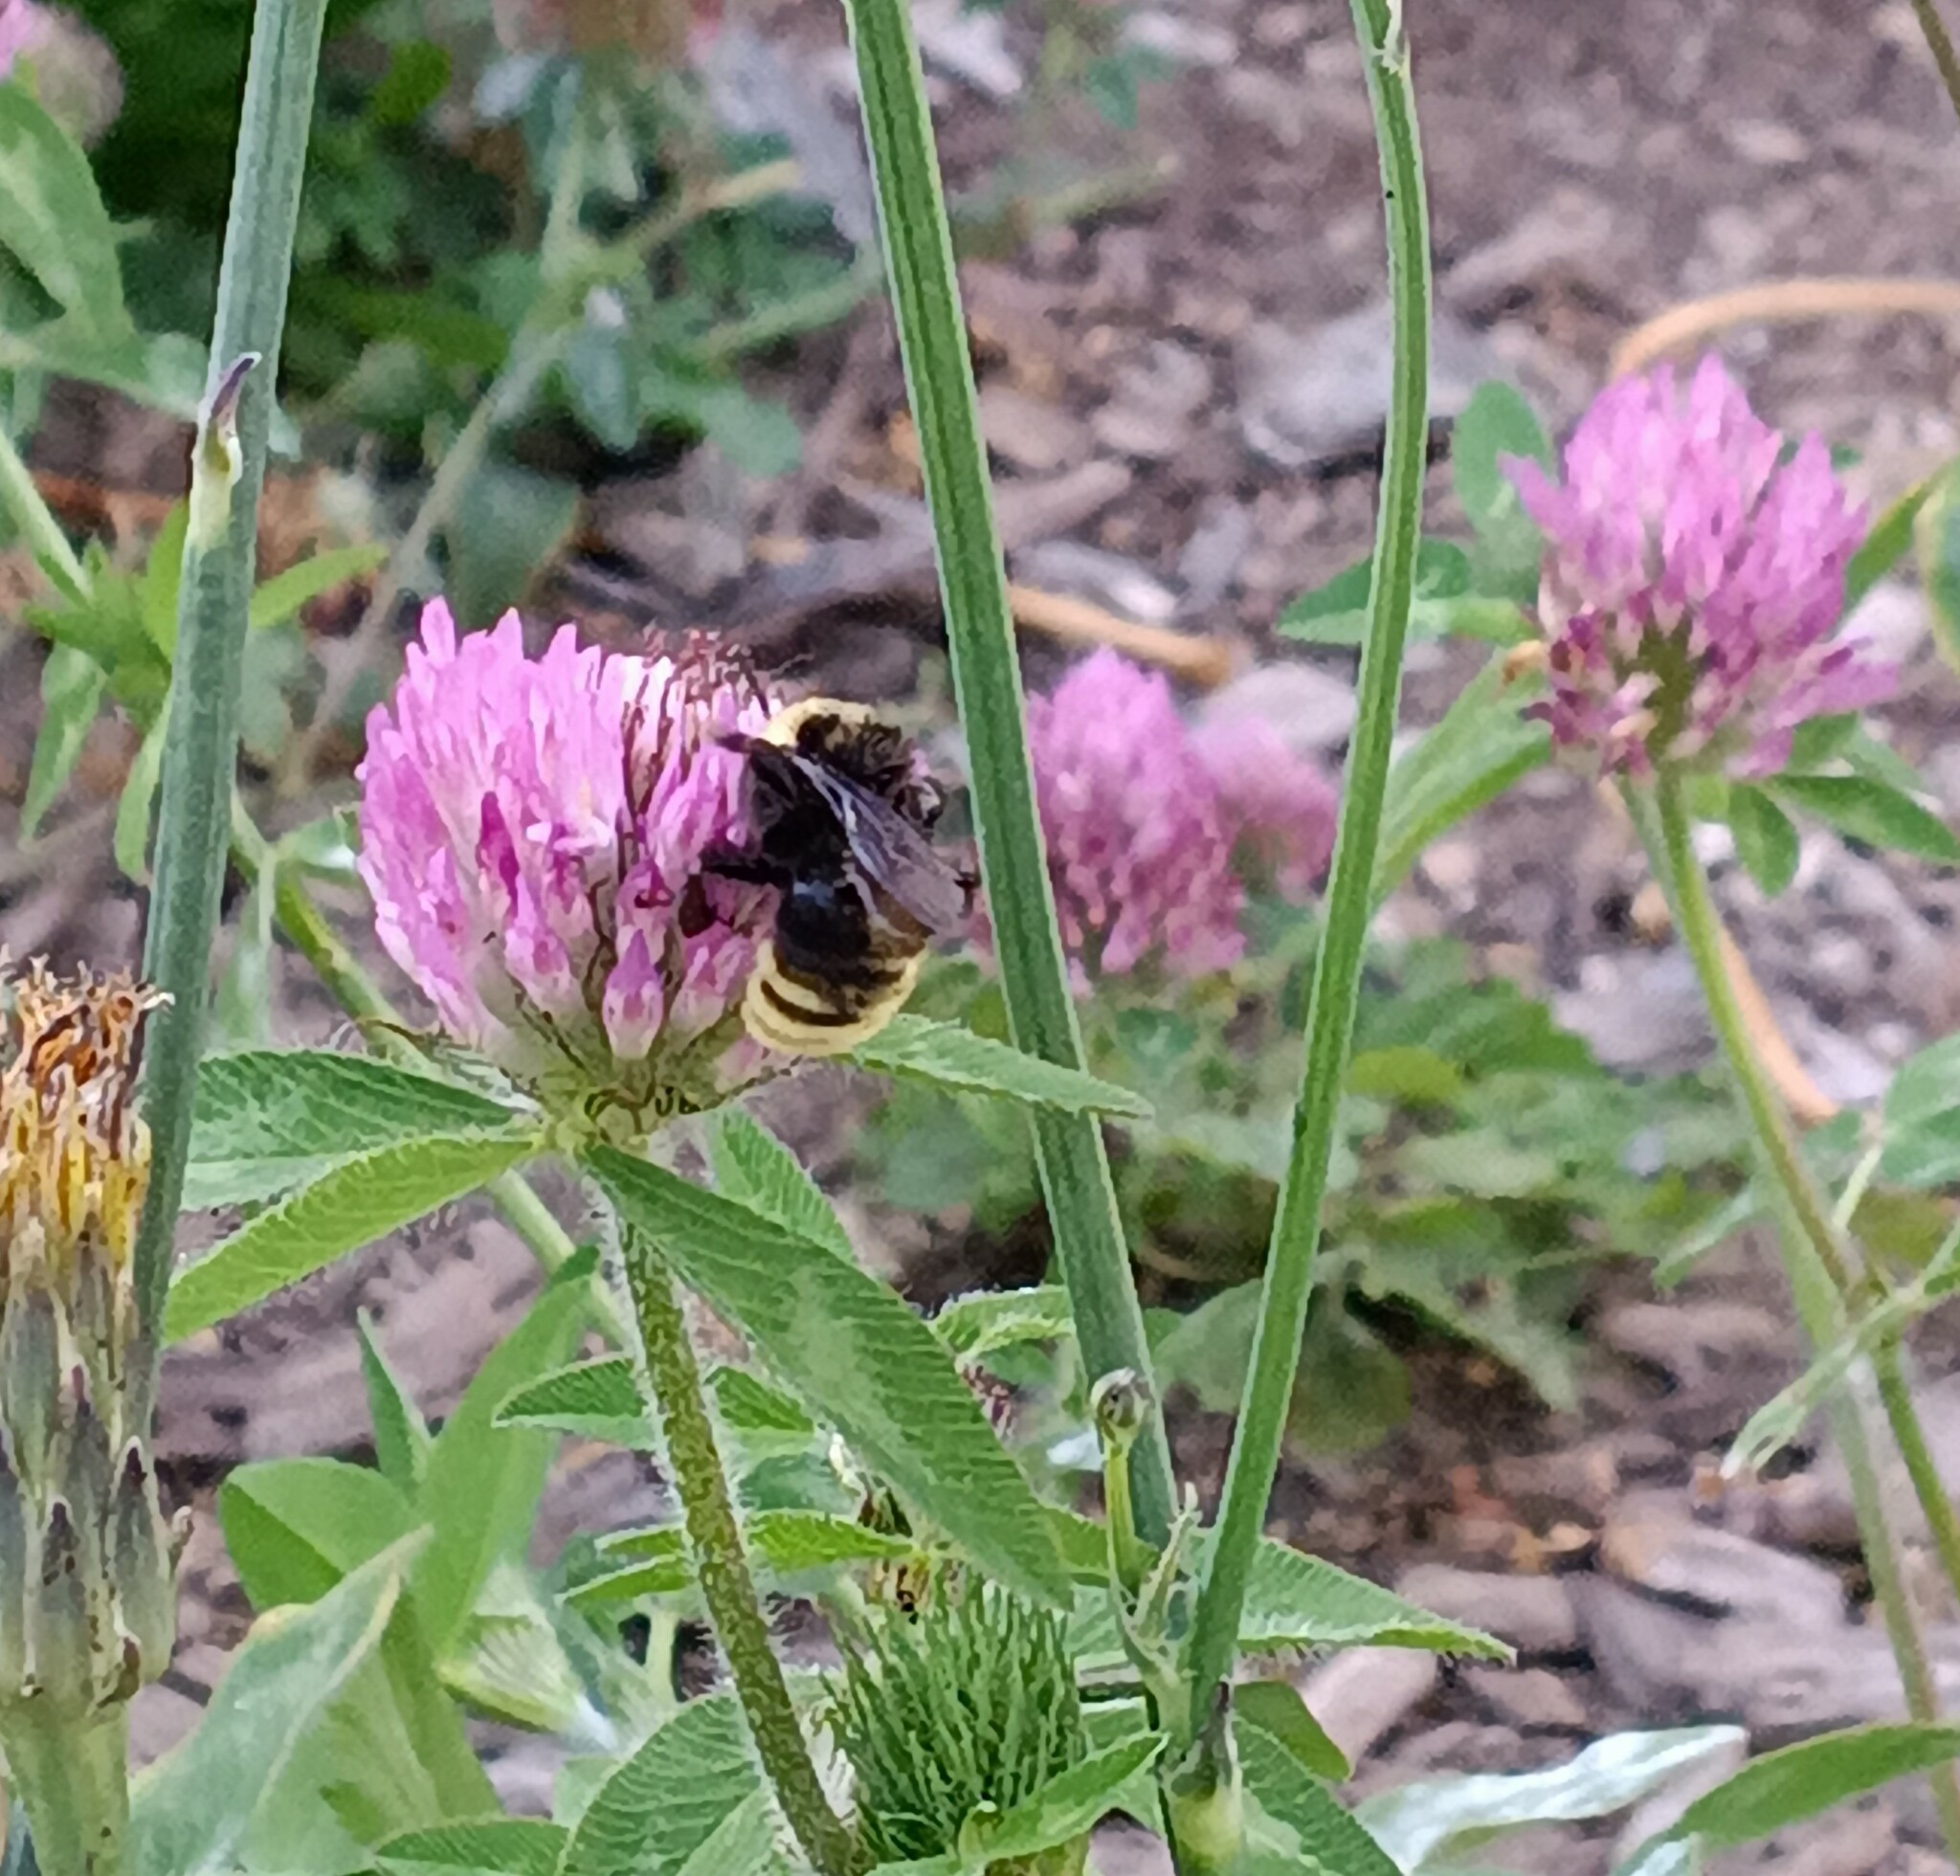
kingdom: Animalia
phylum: Arthropoda
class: Insecta
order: Hymenoptera
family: Apidae
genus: Bombus
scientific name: Bombus californicus
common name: California bumble bee
